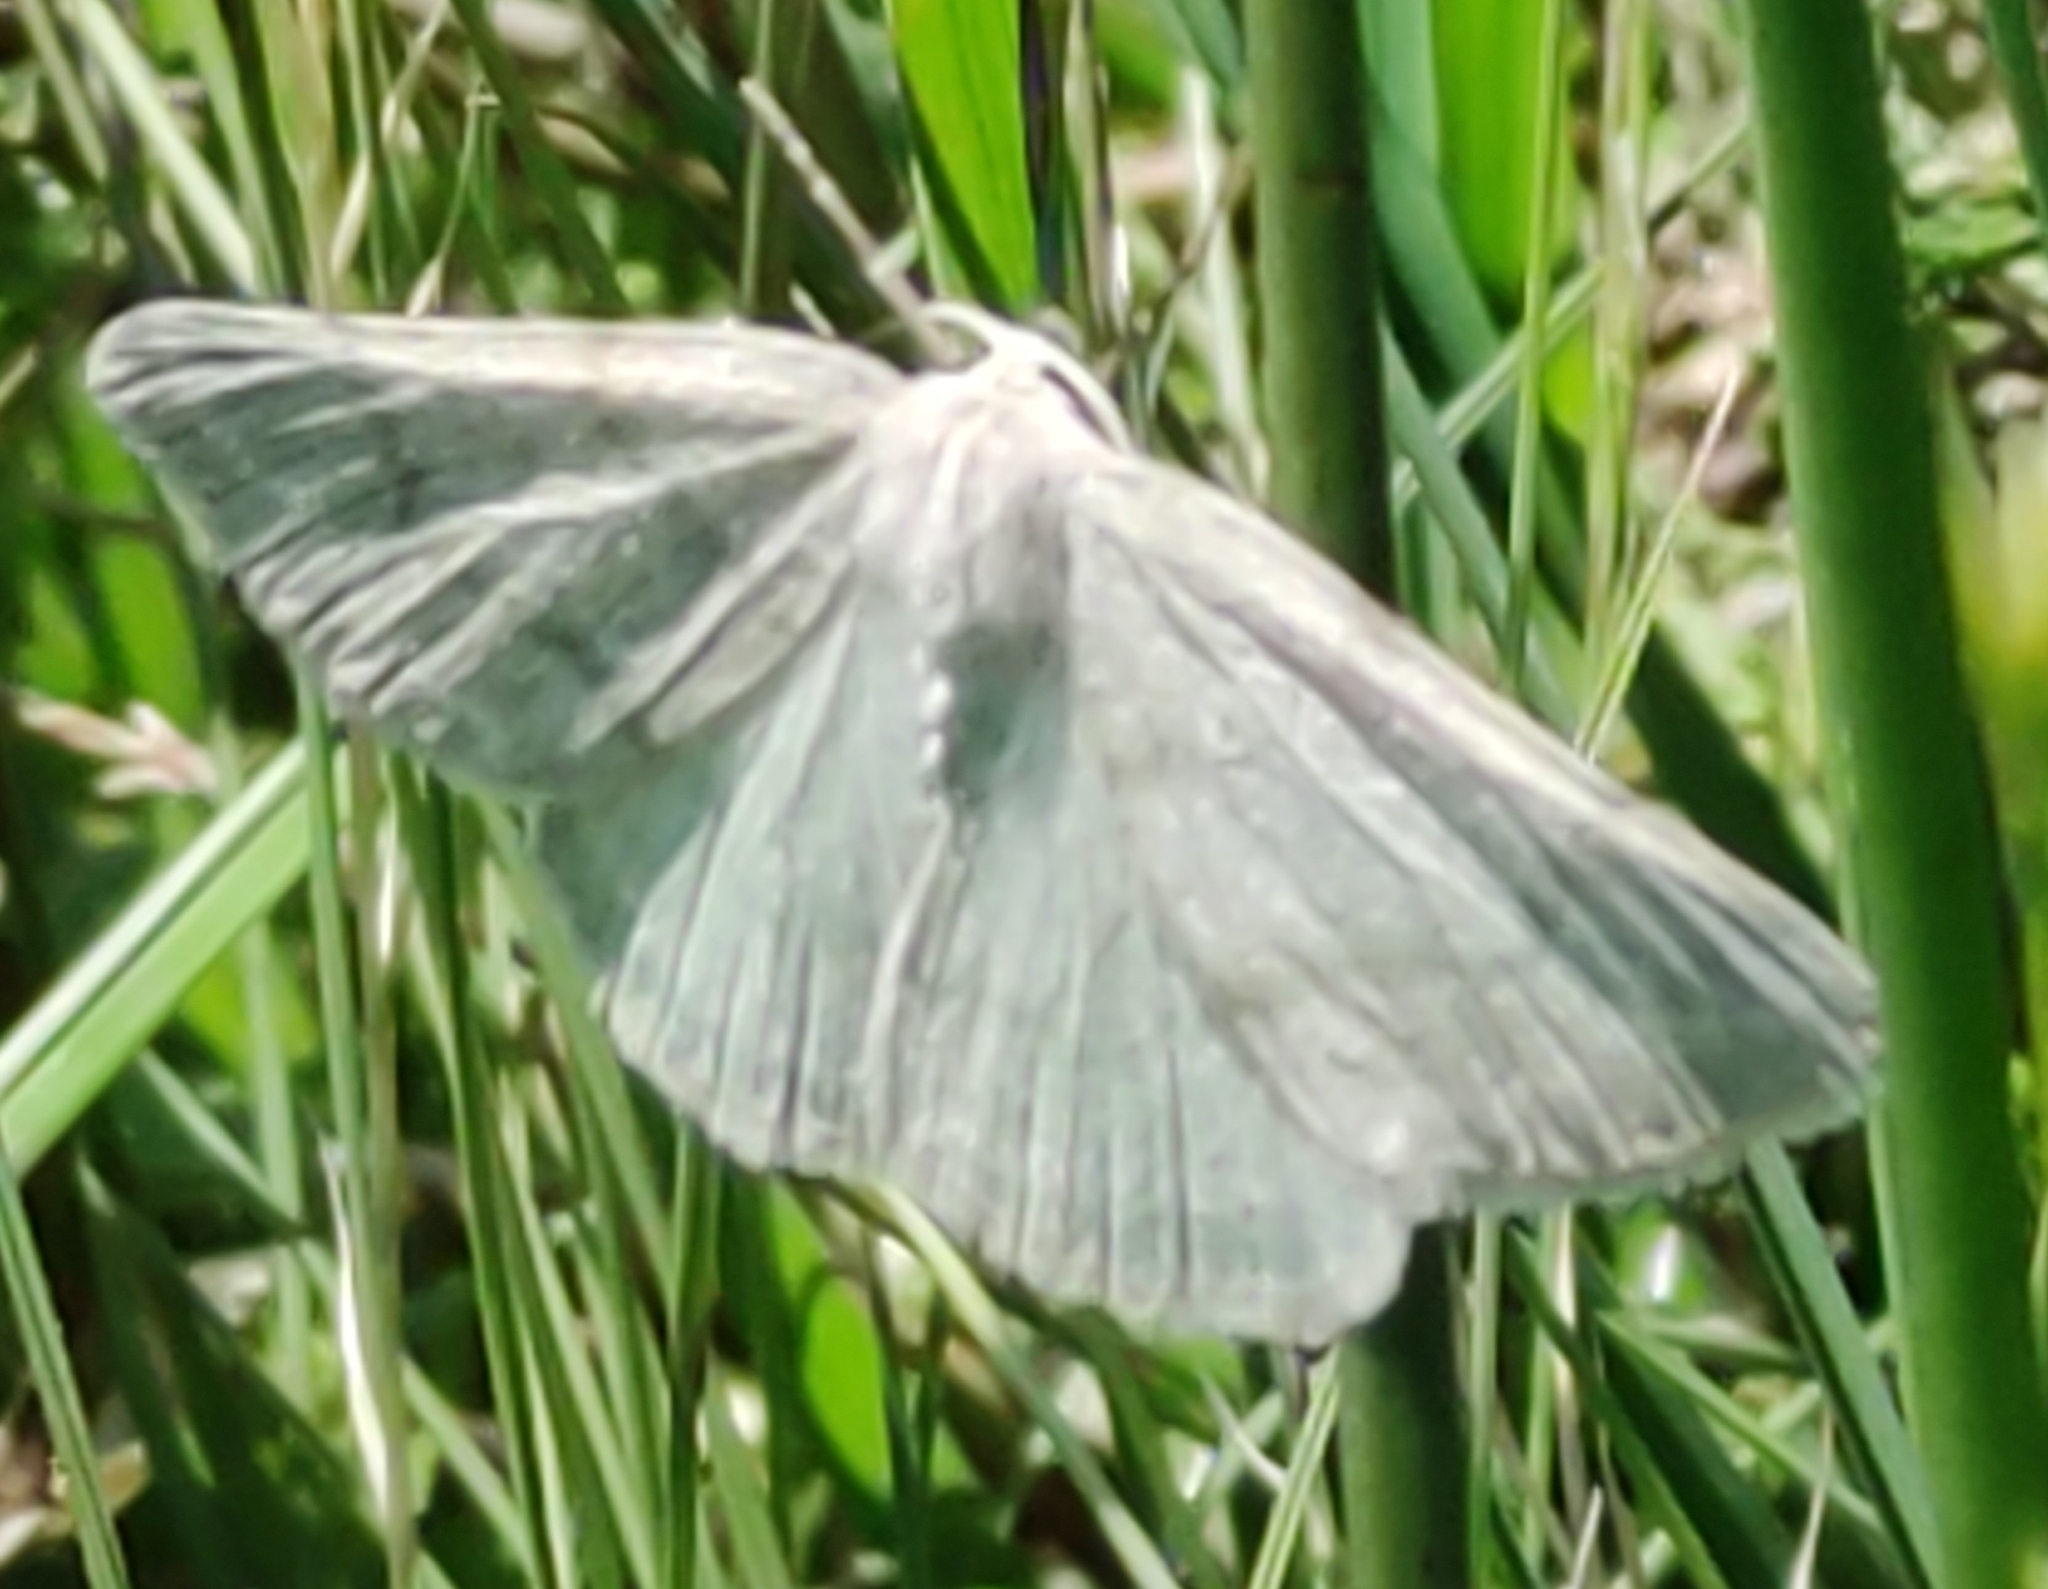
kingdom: Animalia
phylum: Arthropoda
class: Insecta
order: Lepidoptera
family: Geometridae
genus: Pseudoterpna
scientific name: Pseudoterpna pruinata
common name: Grass emerald
